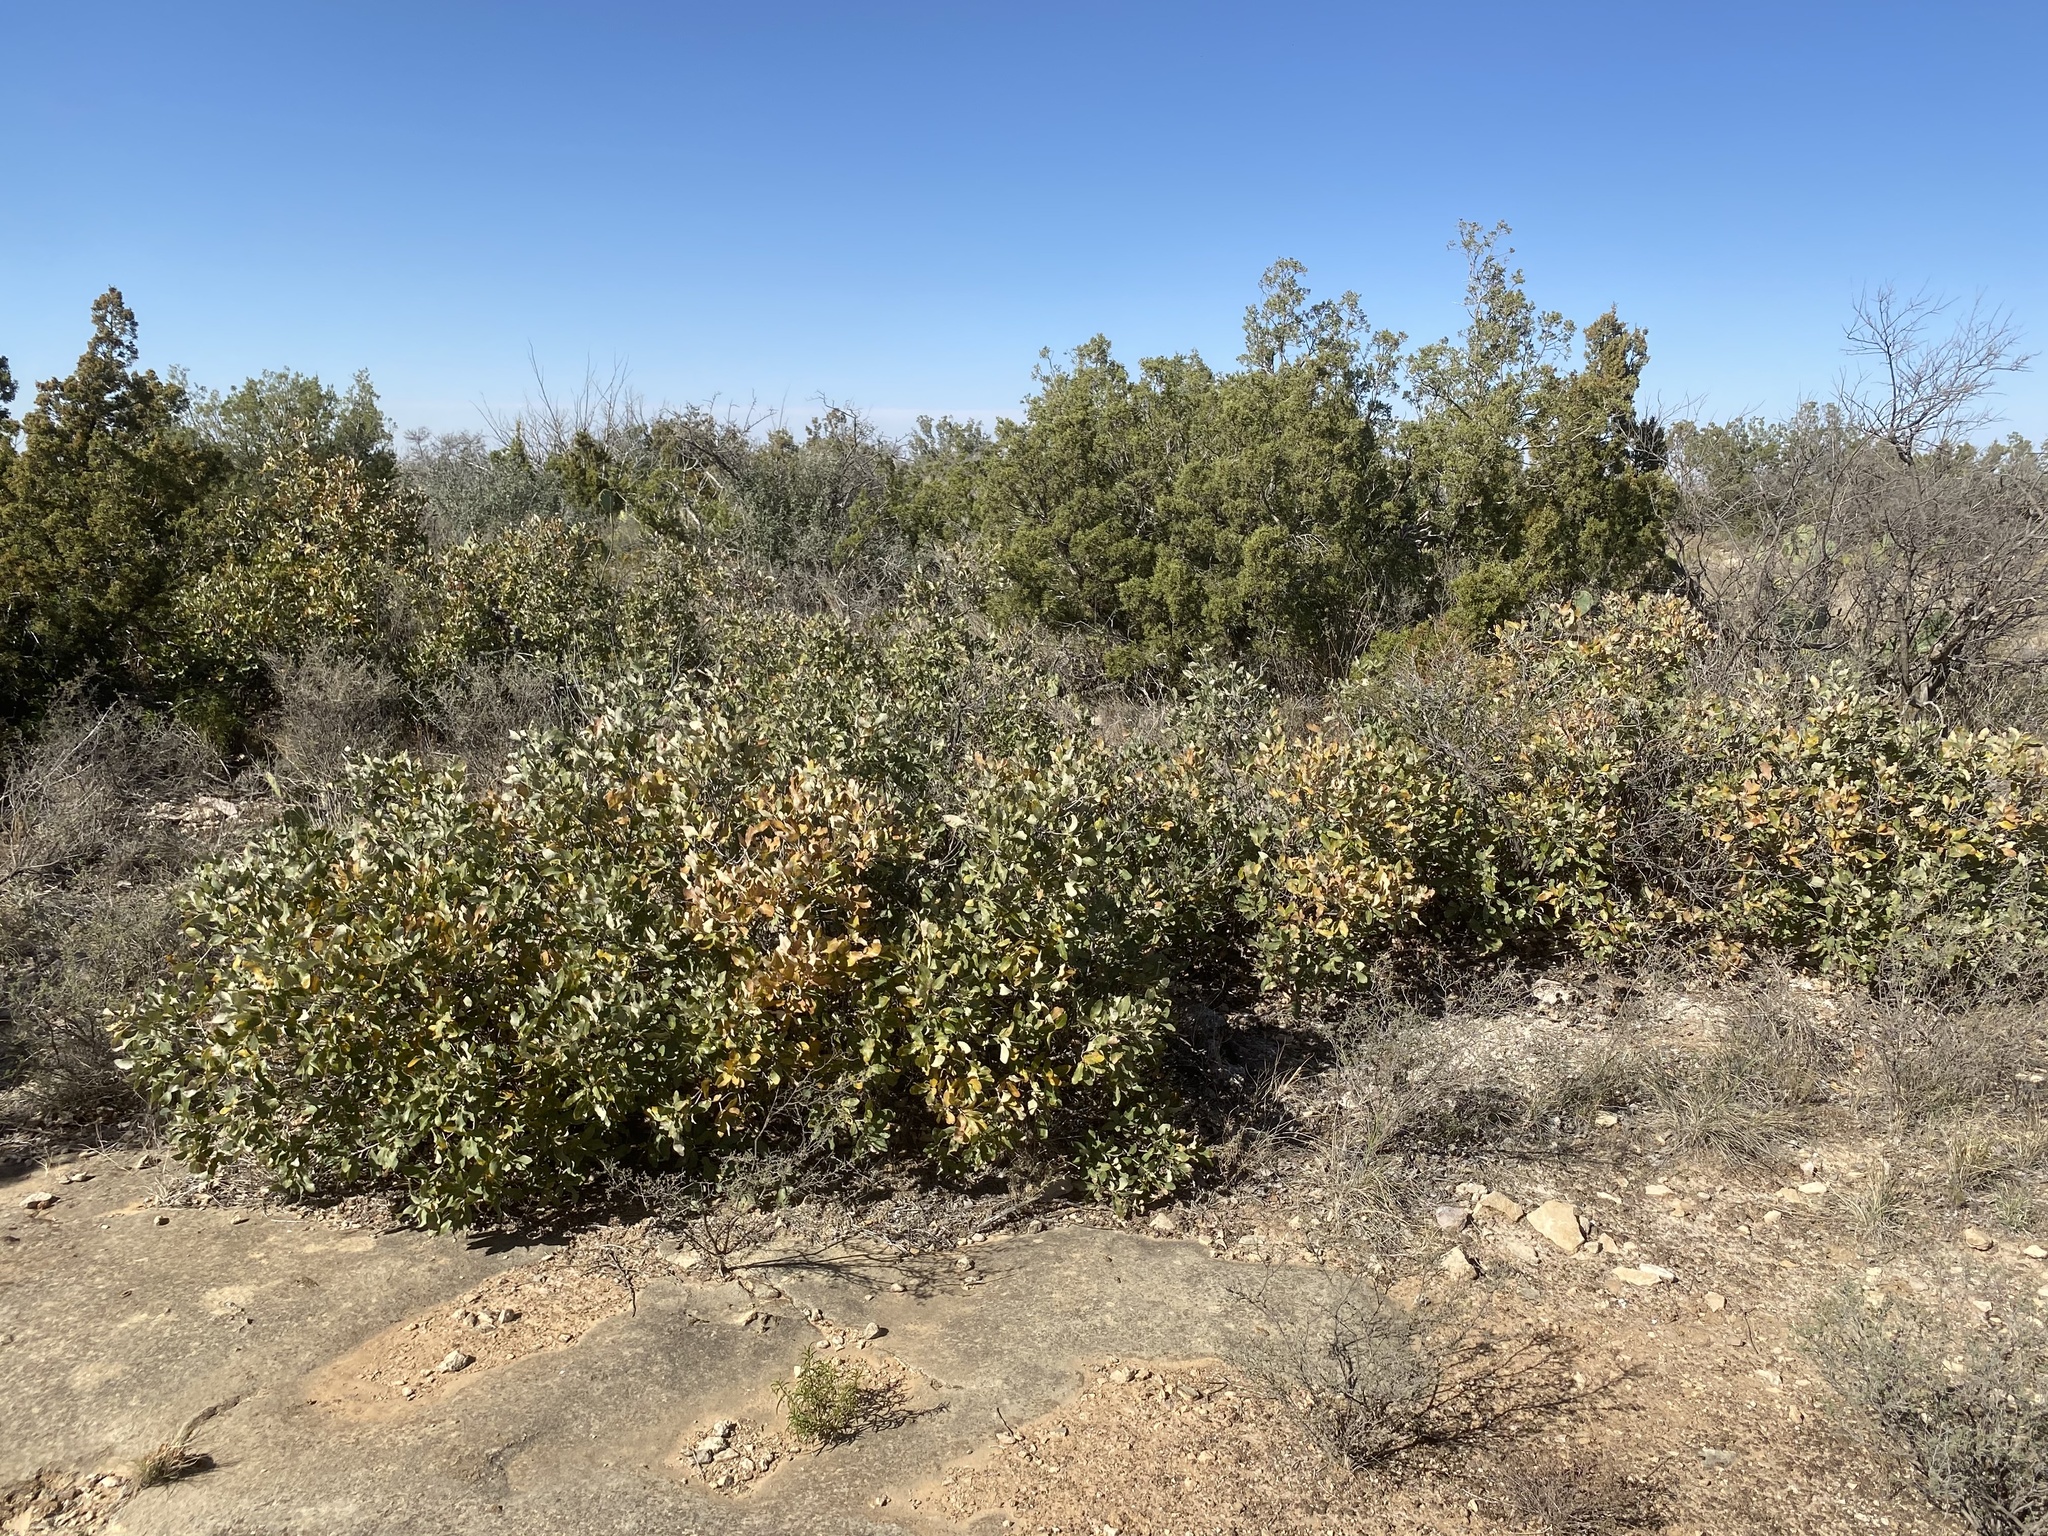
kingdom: Plantae
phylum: Tracheophyta
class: Magnoliopsida
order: Fagales
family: Fagaceae
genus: Quercus
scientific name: Quercus havardii
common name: Shinnery oak
